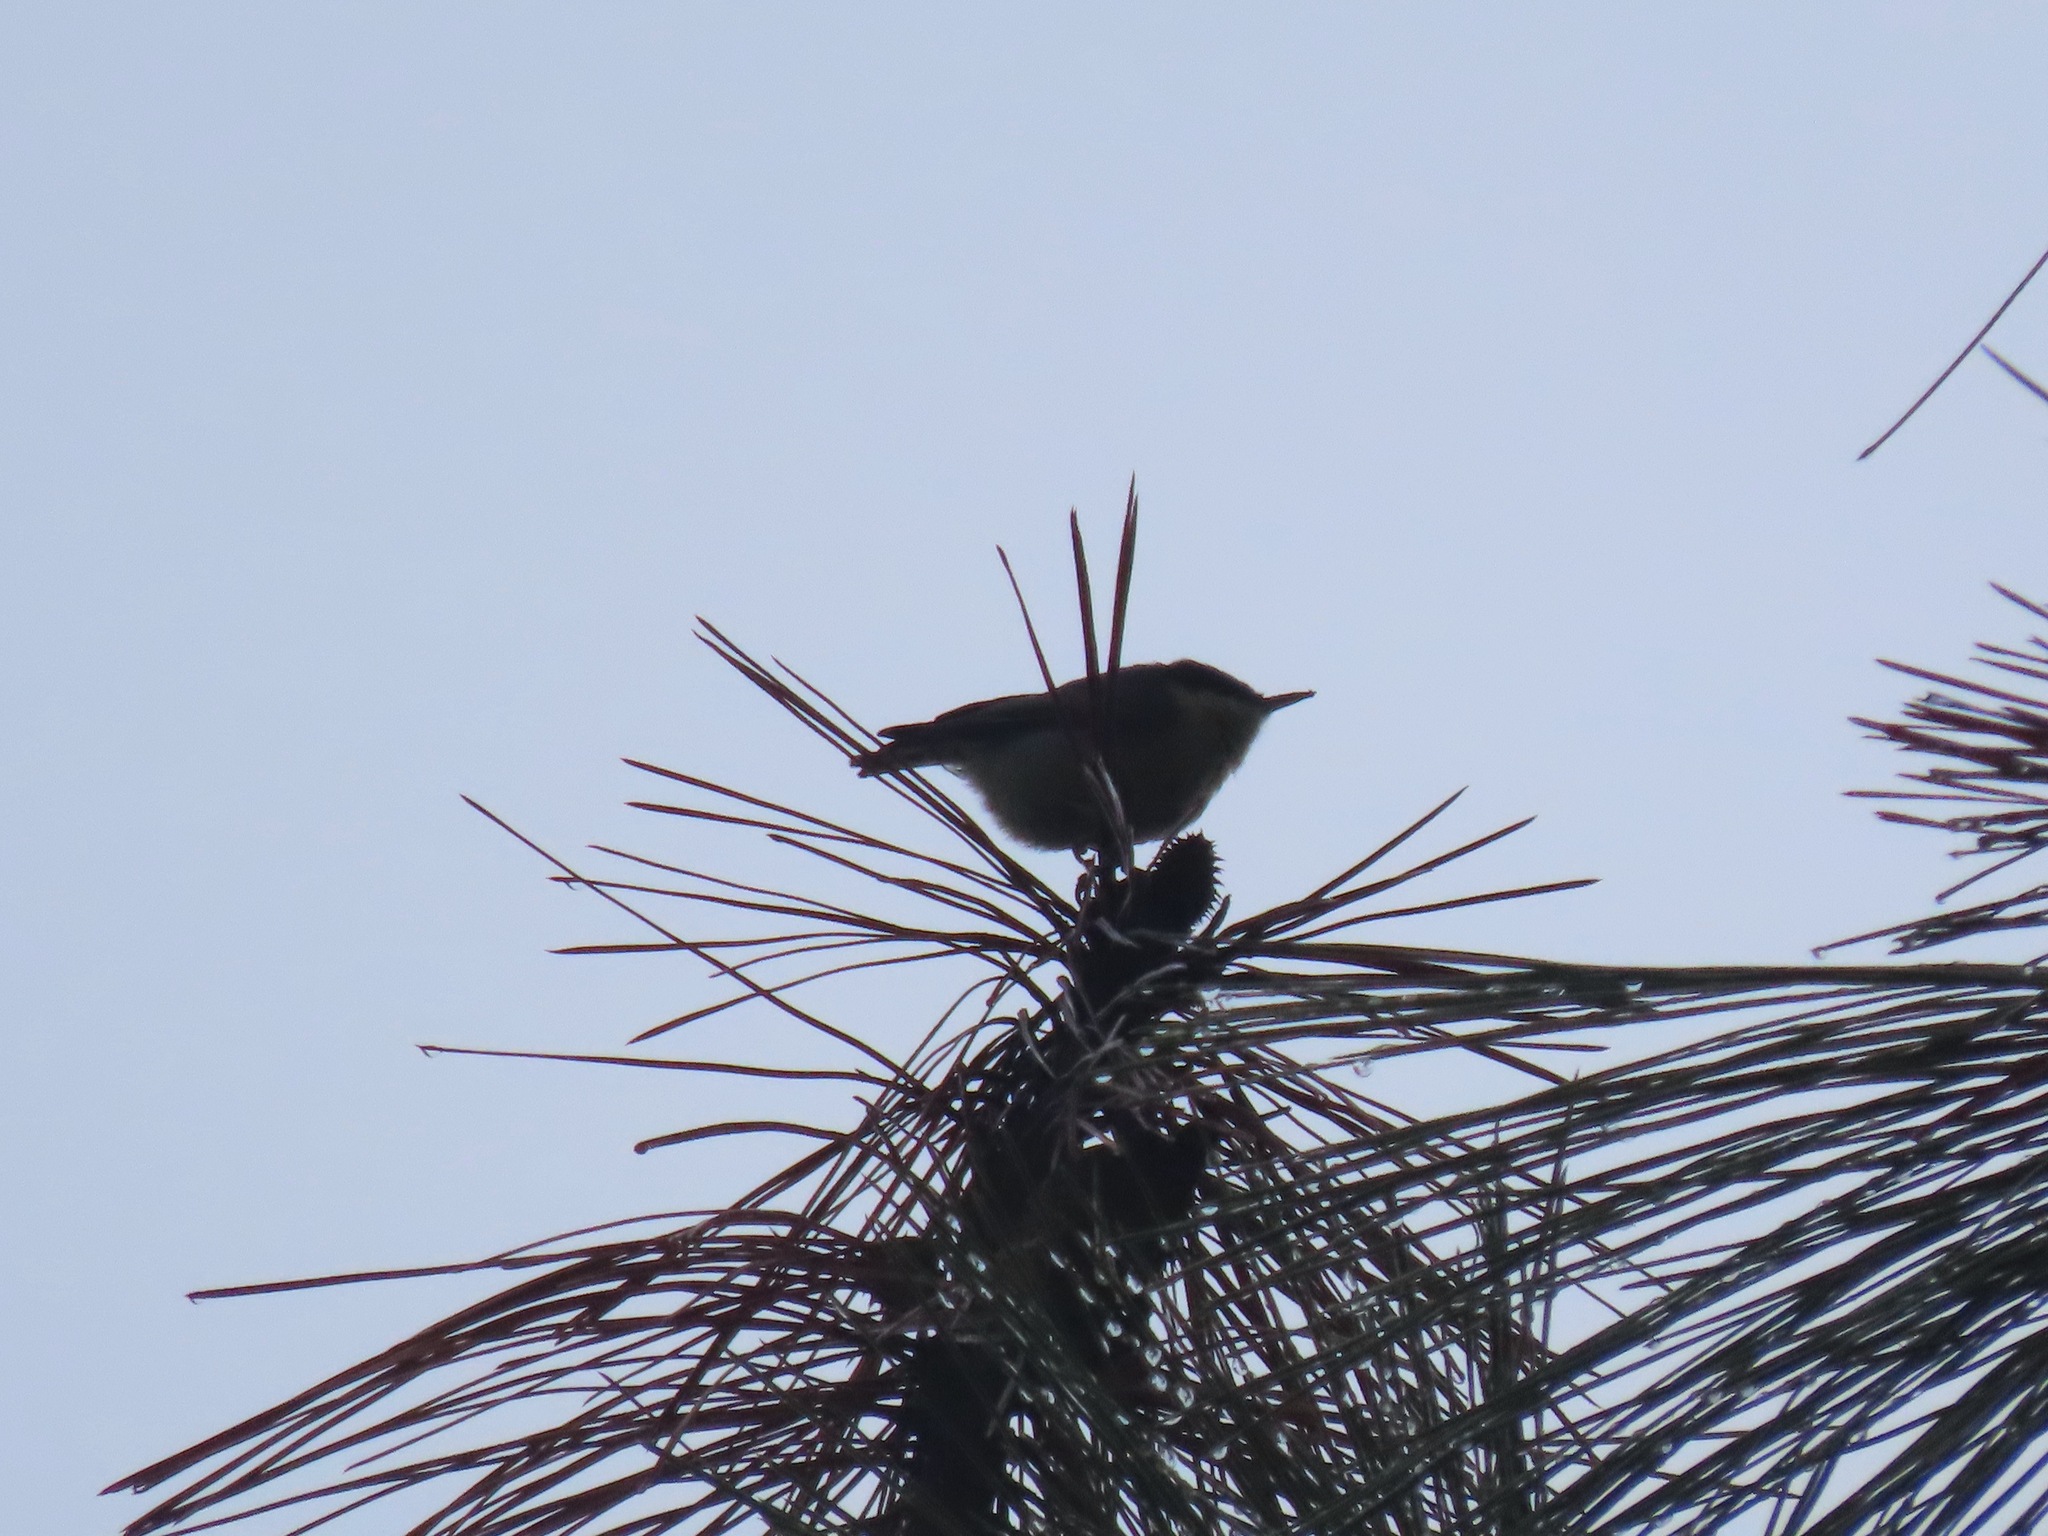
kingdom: Animalia
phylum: Chordata
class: Aves
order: Passeriformes
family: Sittidae
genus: Sitta
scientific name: Sitta pygmaea
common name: Pygmy nuthatch
